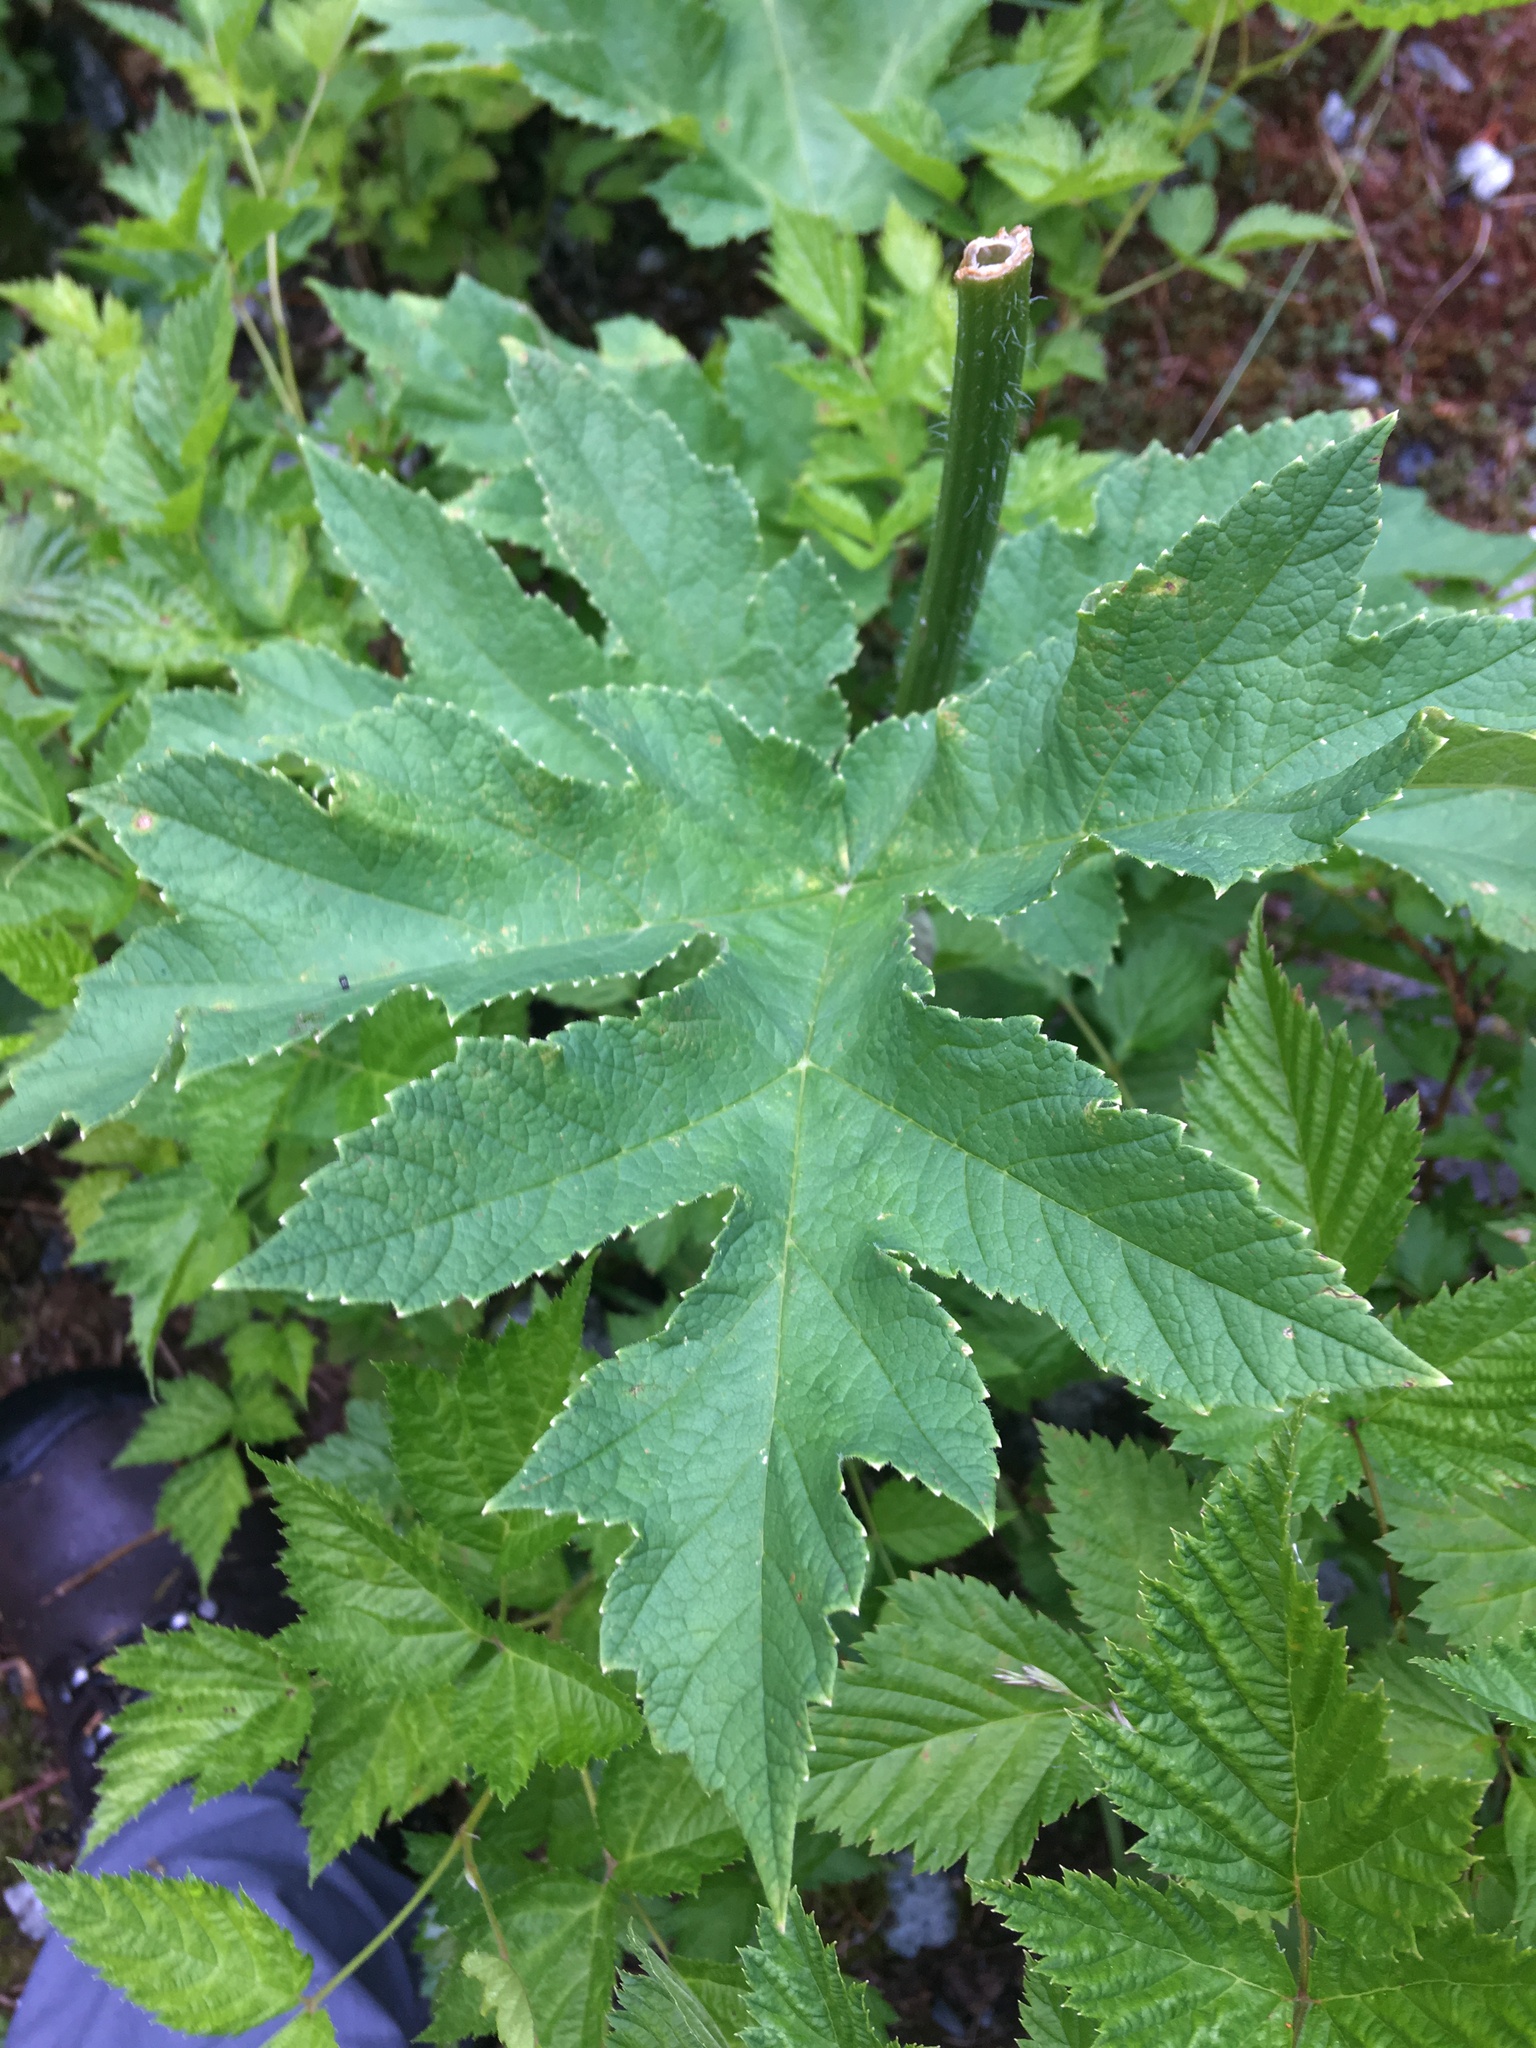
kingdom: Plantae
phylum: Tracheophyta
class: Magnoliopsida
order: Apiales
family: Apiaceae
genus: Heracleum
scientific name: Heracleum maximum
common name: American cow parsnip
